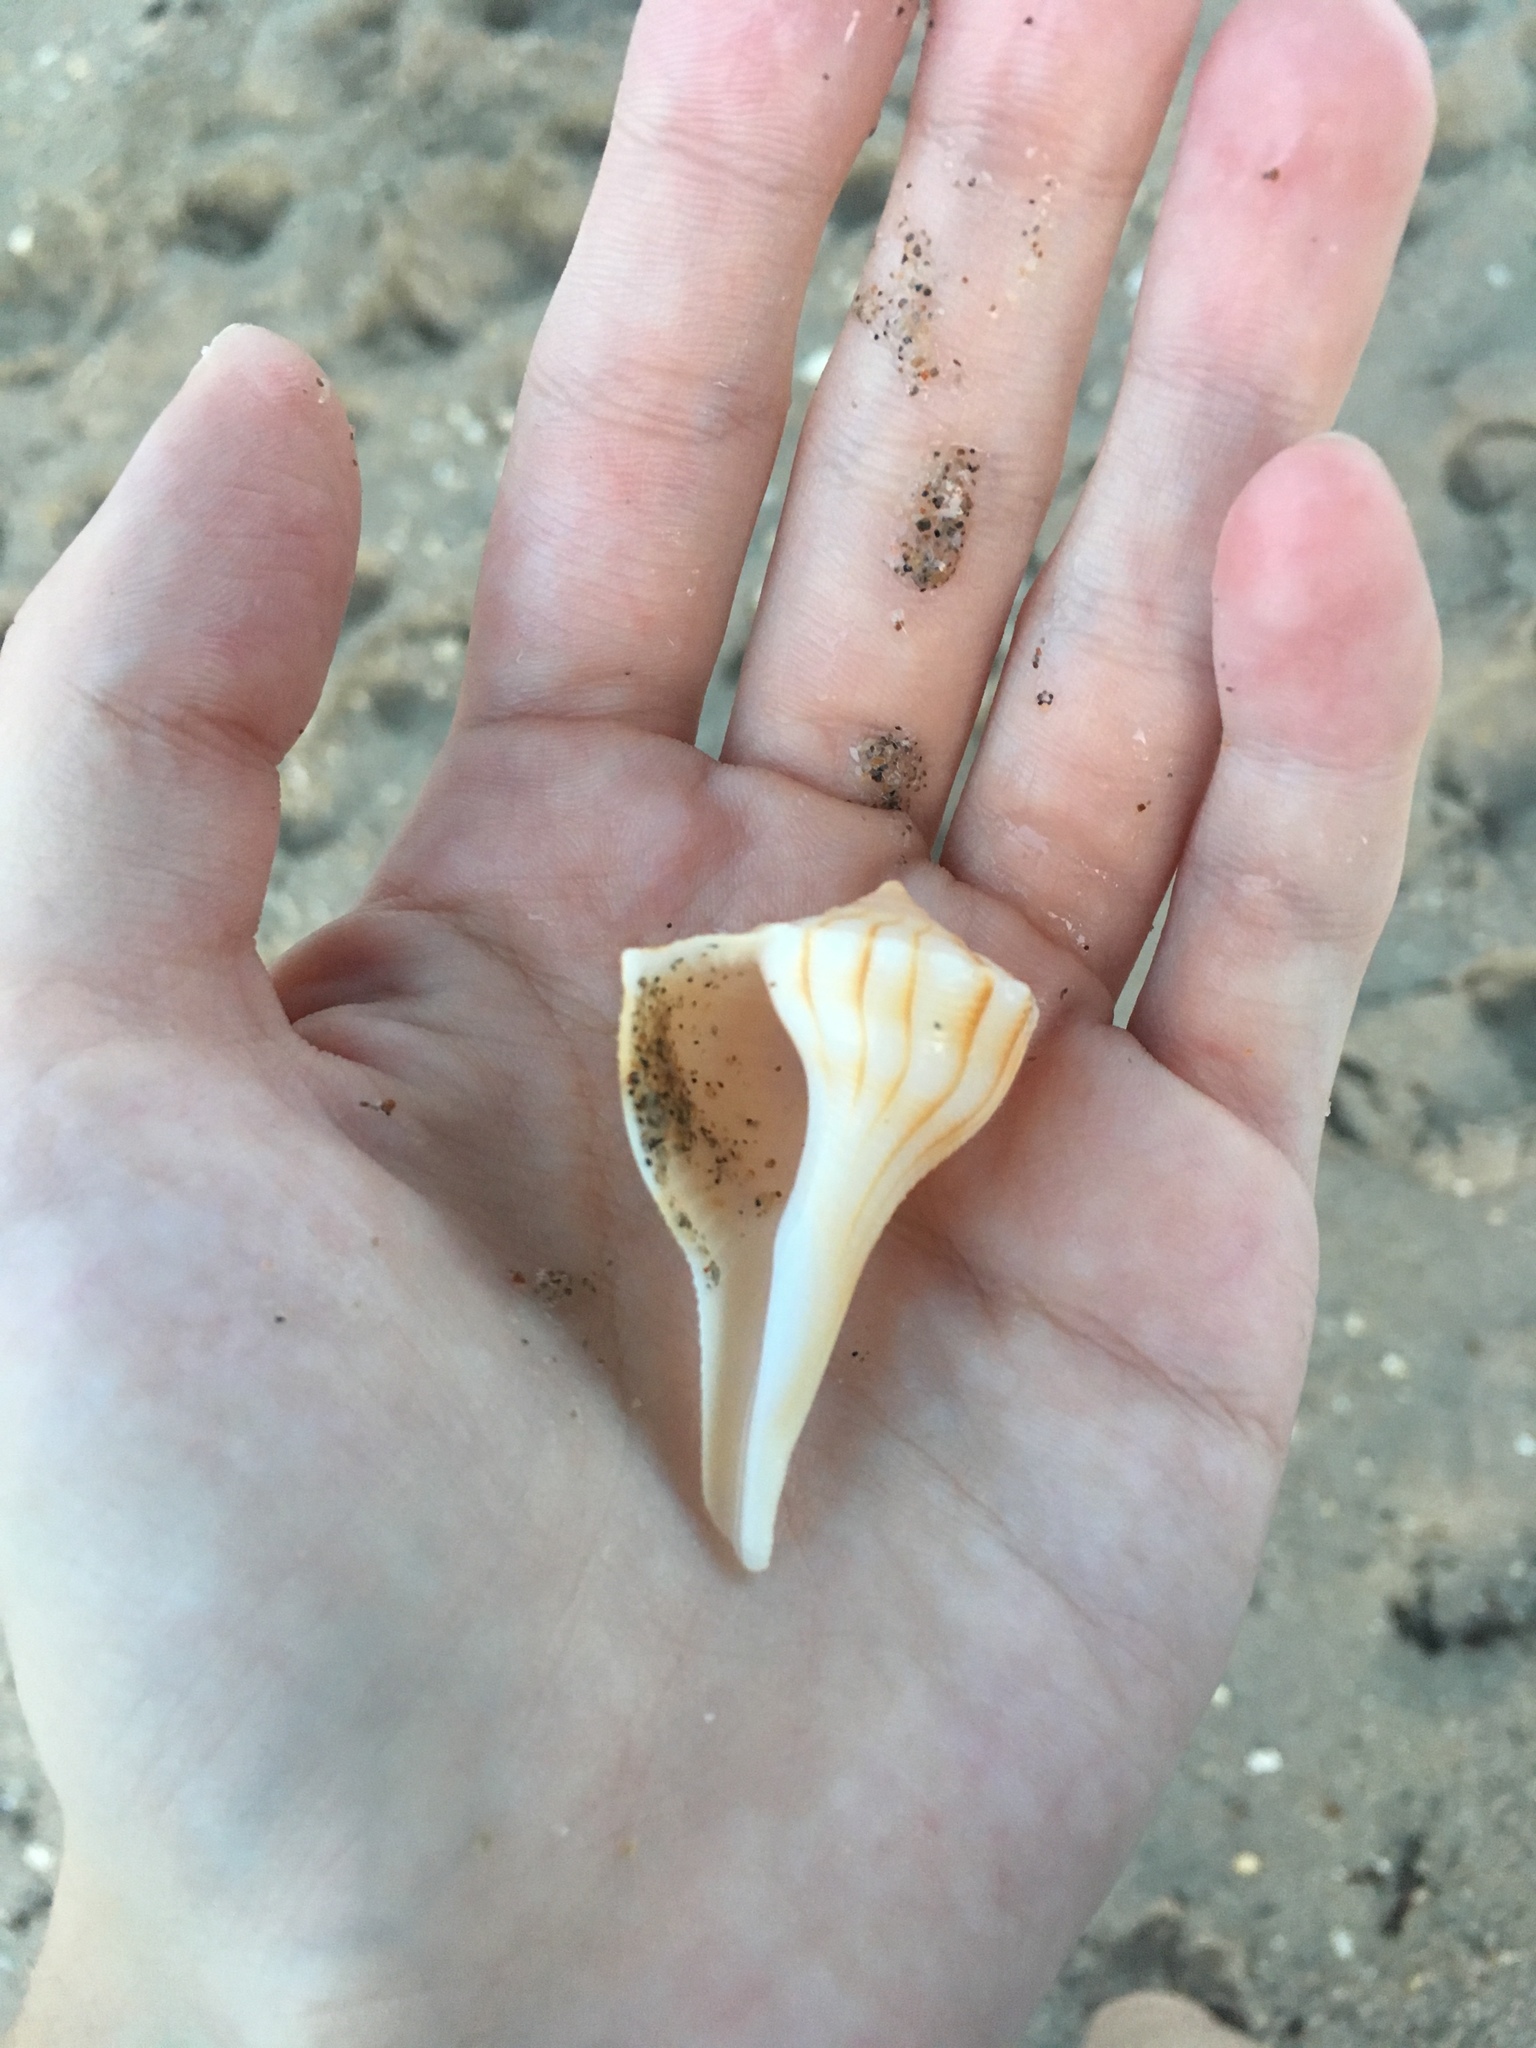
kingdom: Animalia
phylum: Mollusca
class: Gastropoda
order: Neogastropoda
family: Busyconidae
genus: Sinistrofulgur
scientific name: Sinistrofulgur sinistrum
